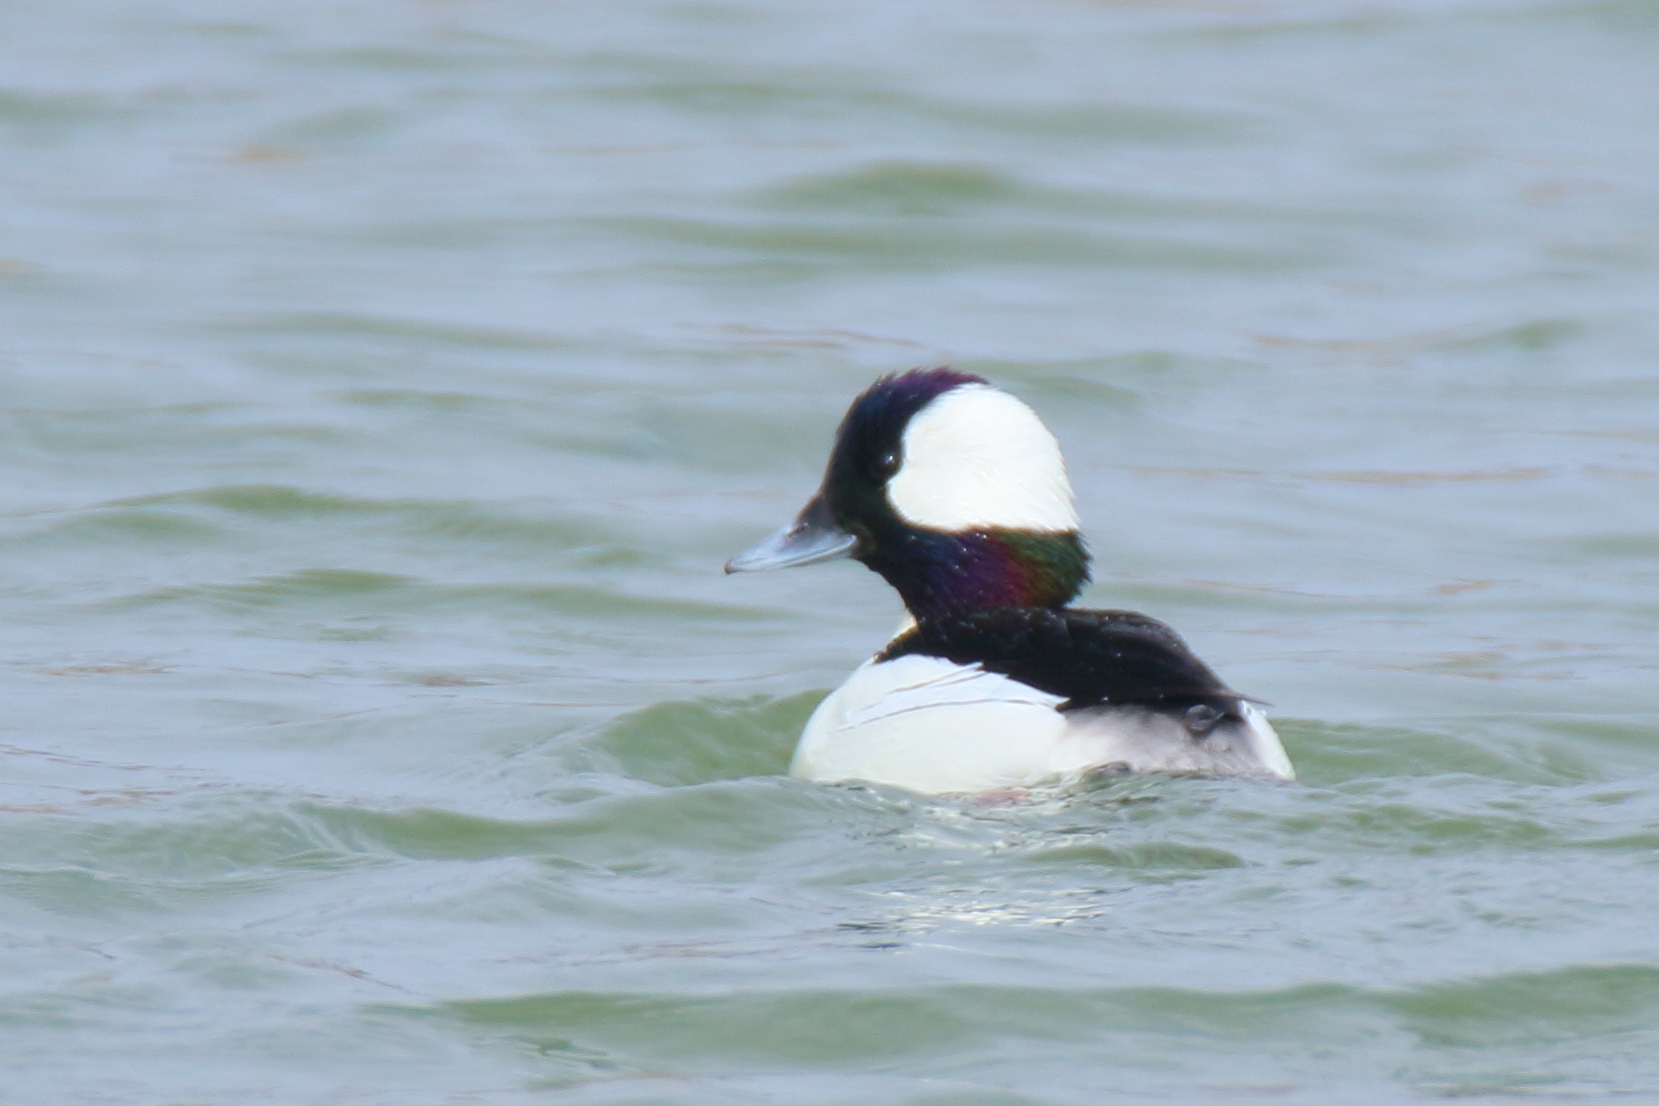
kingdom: Animalia
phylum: Chordata
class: Aves
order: Anseriformes
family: Anatidae
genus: Bucephala
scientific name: Bucephala albeola
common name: Bufflehead
